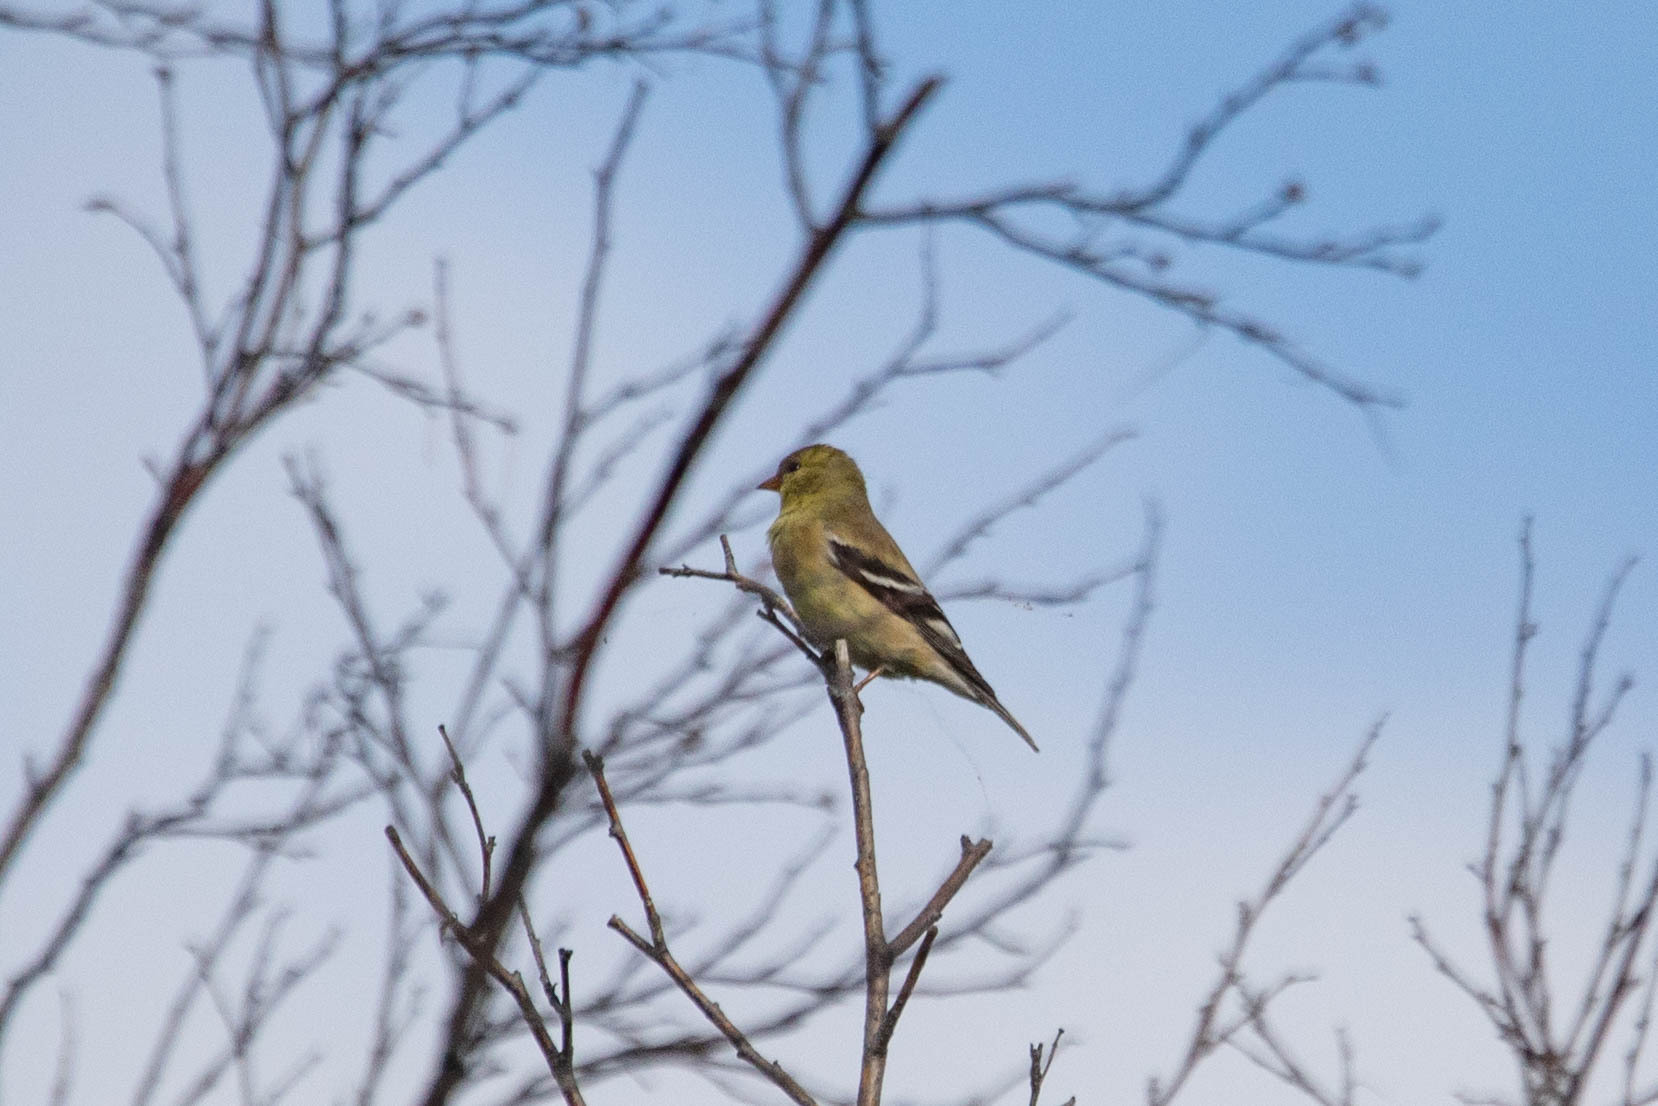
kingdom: Animalia
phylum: Chordata
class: Aves
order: Passeriformes
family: Fringillidae
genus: Spinus
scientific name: Spinus tristis
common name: American goldfinch
